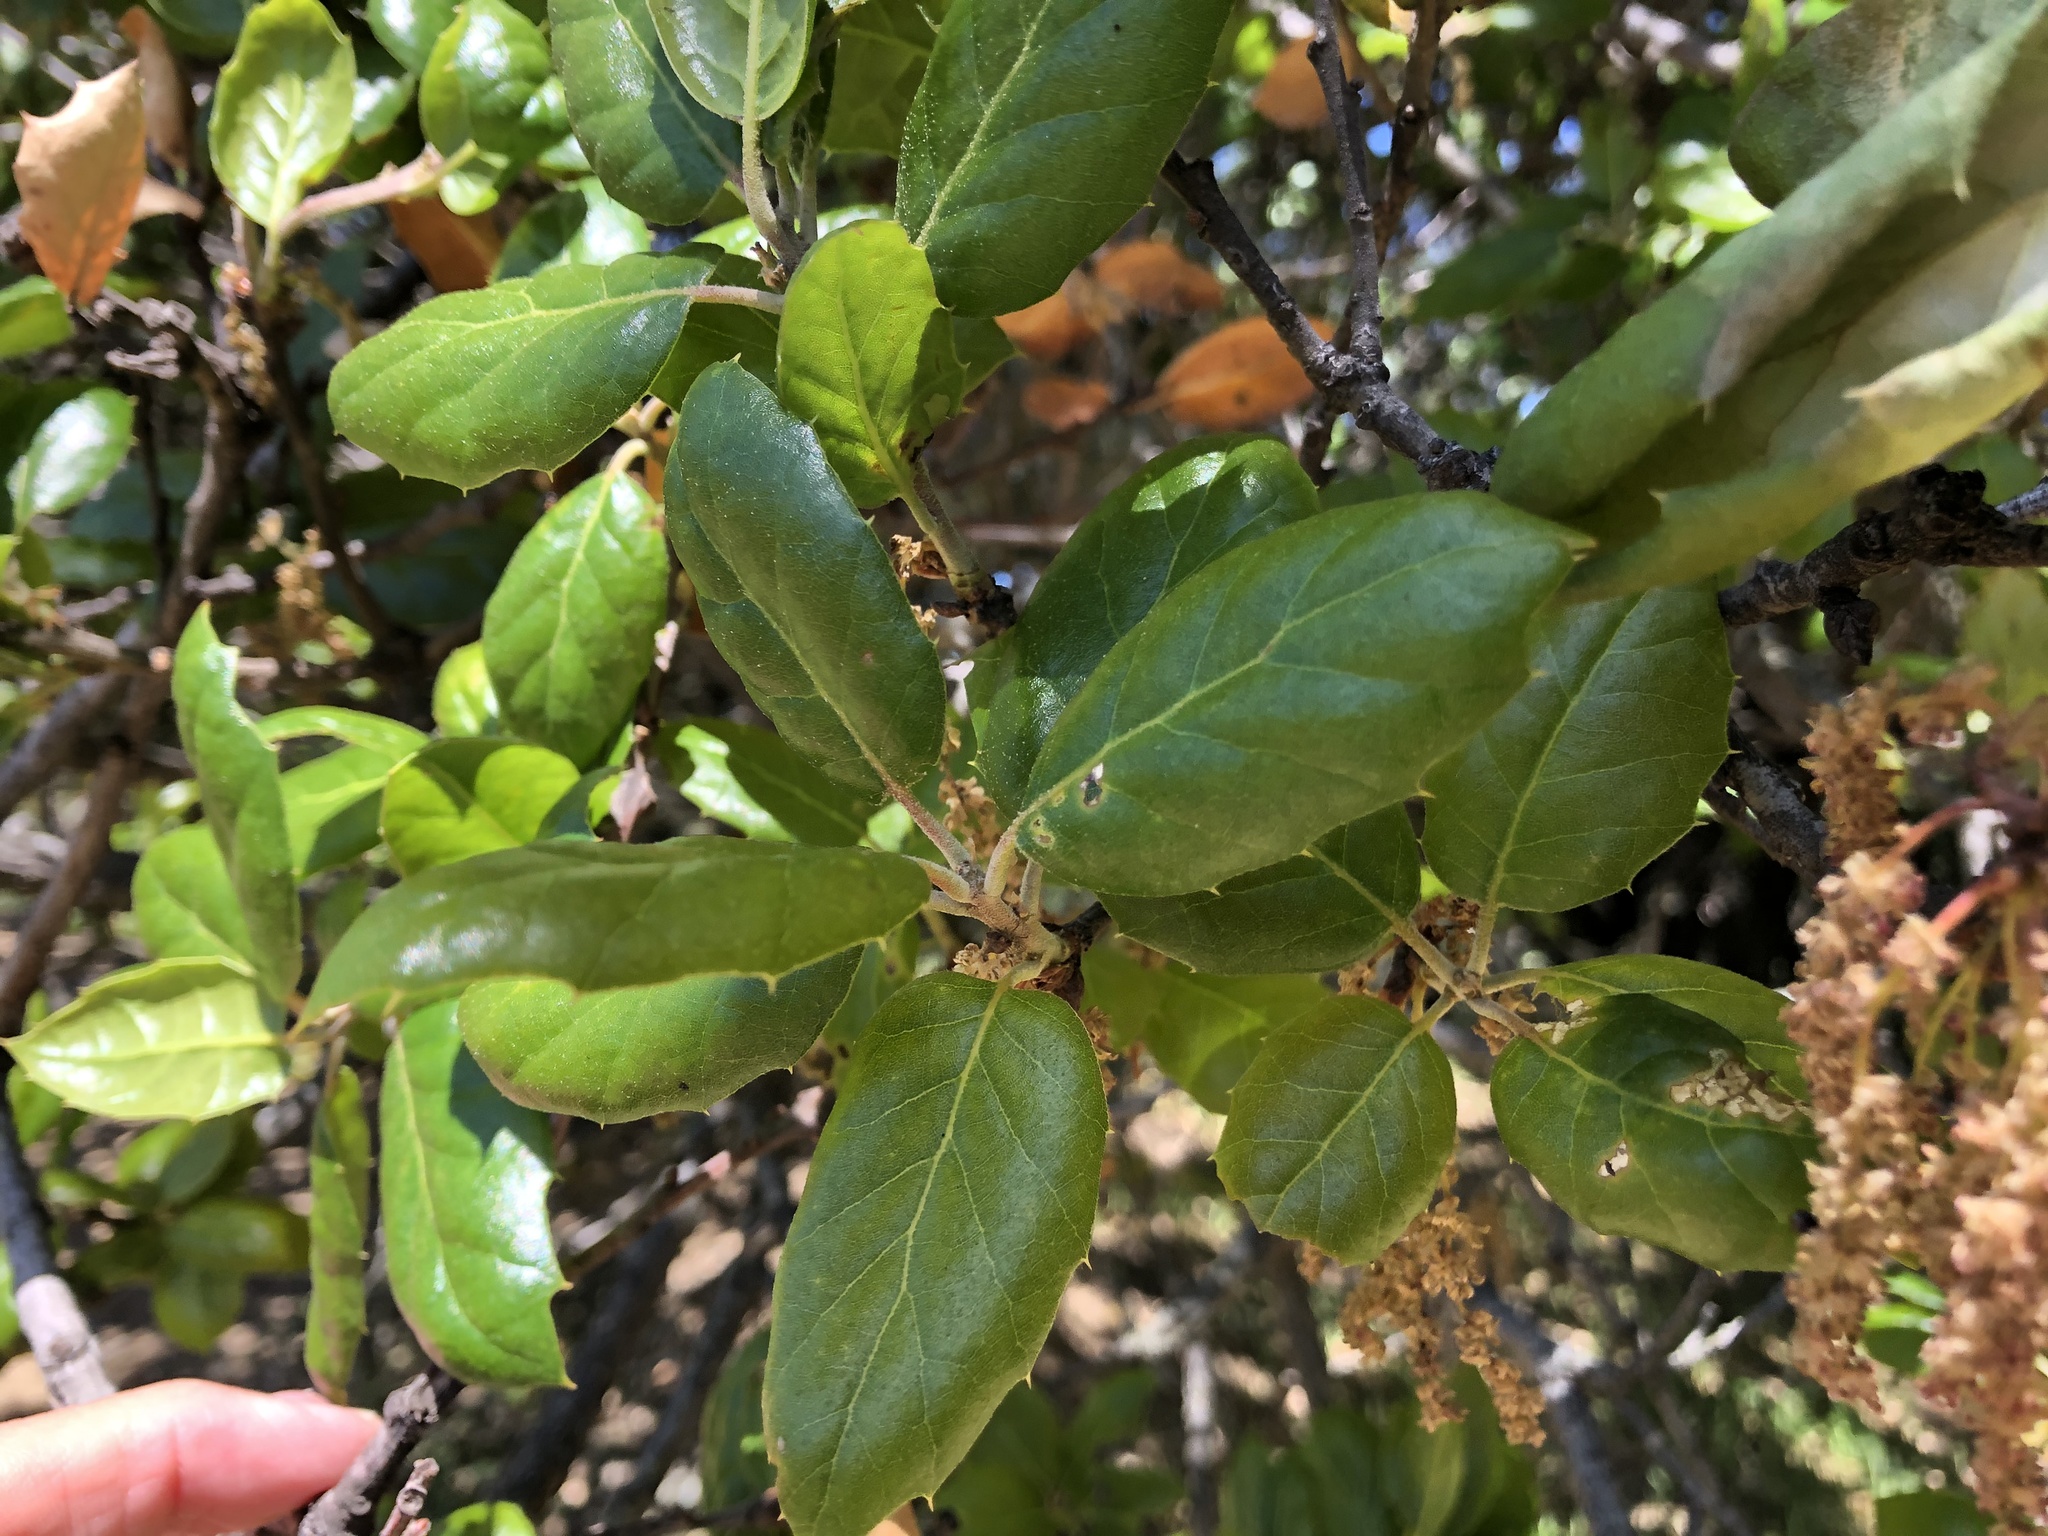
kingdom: Plantae
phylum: Tracheophyta
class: Magnoliopsida
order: Fagales
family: Fagaceae
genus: Quercus
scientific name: Quercus agrifolia
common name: California live oak
